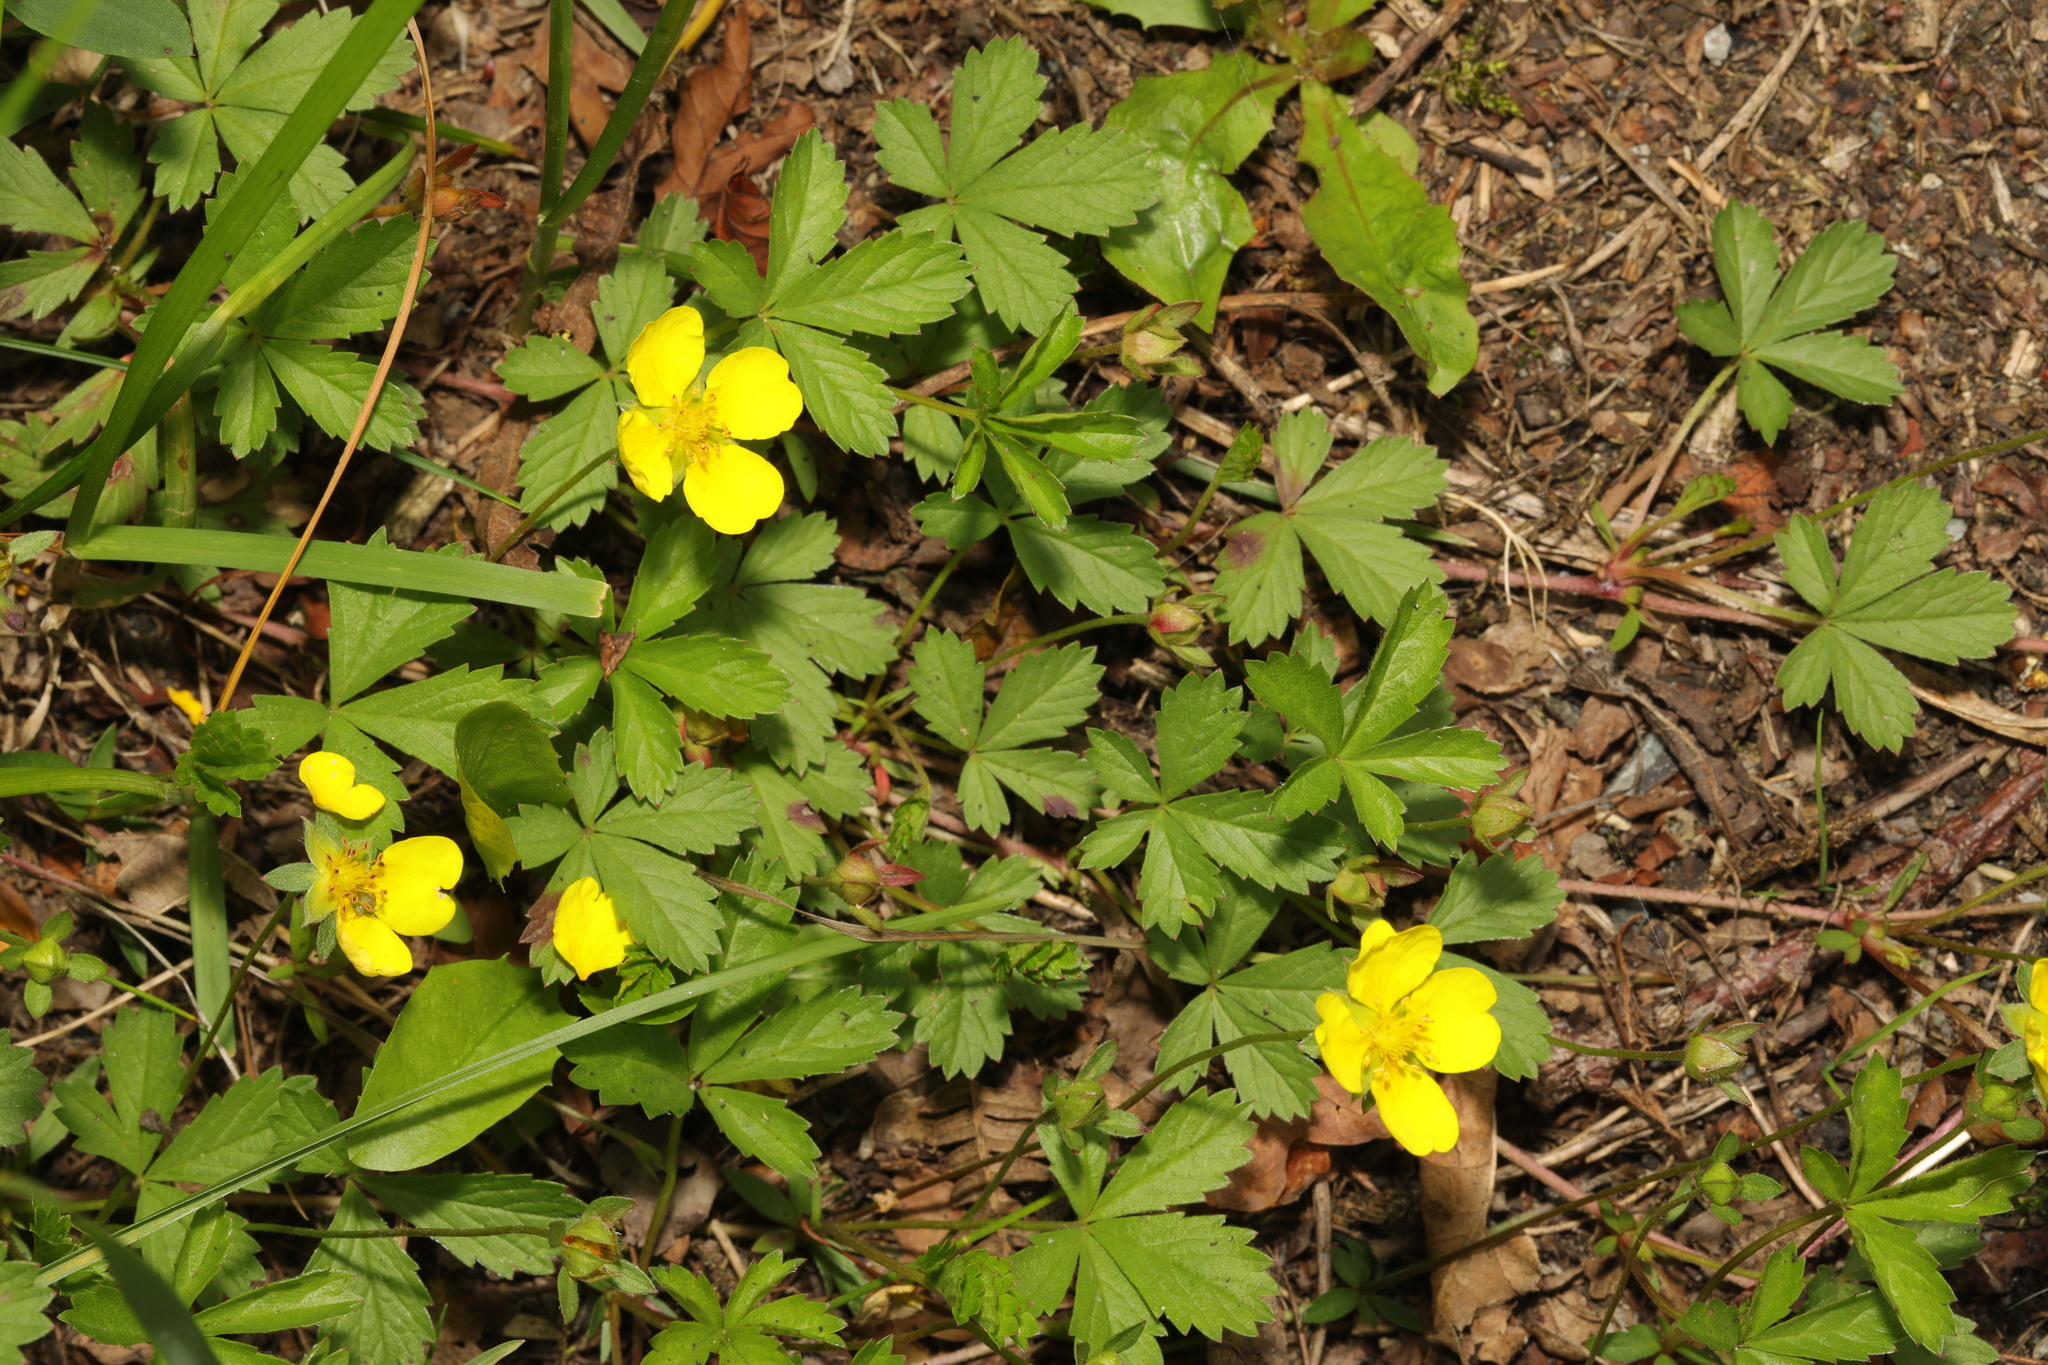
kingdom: Plantae
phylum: Tracheophyta
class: Magnoliopsida
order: Rosales
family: Rosaceae
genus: Potentilla
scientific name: Potentilla reptans
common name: Creeping cinquefoil
